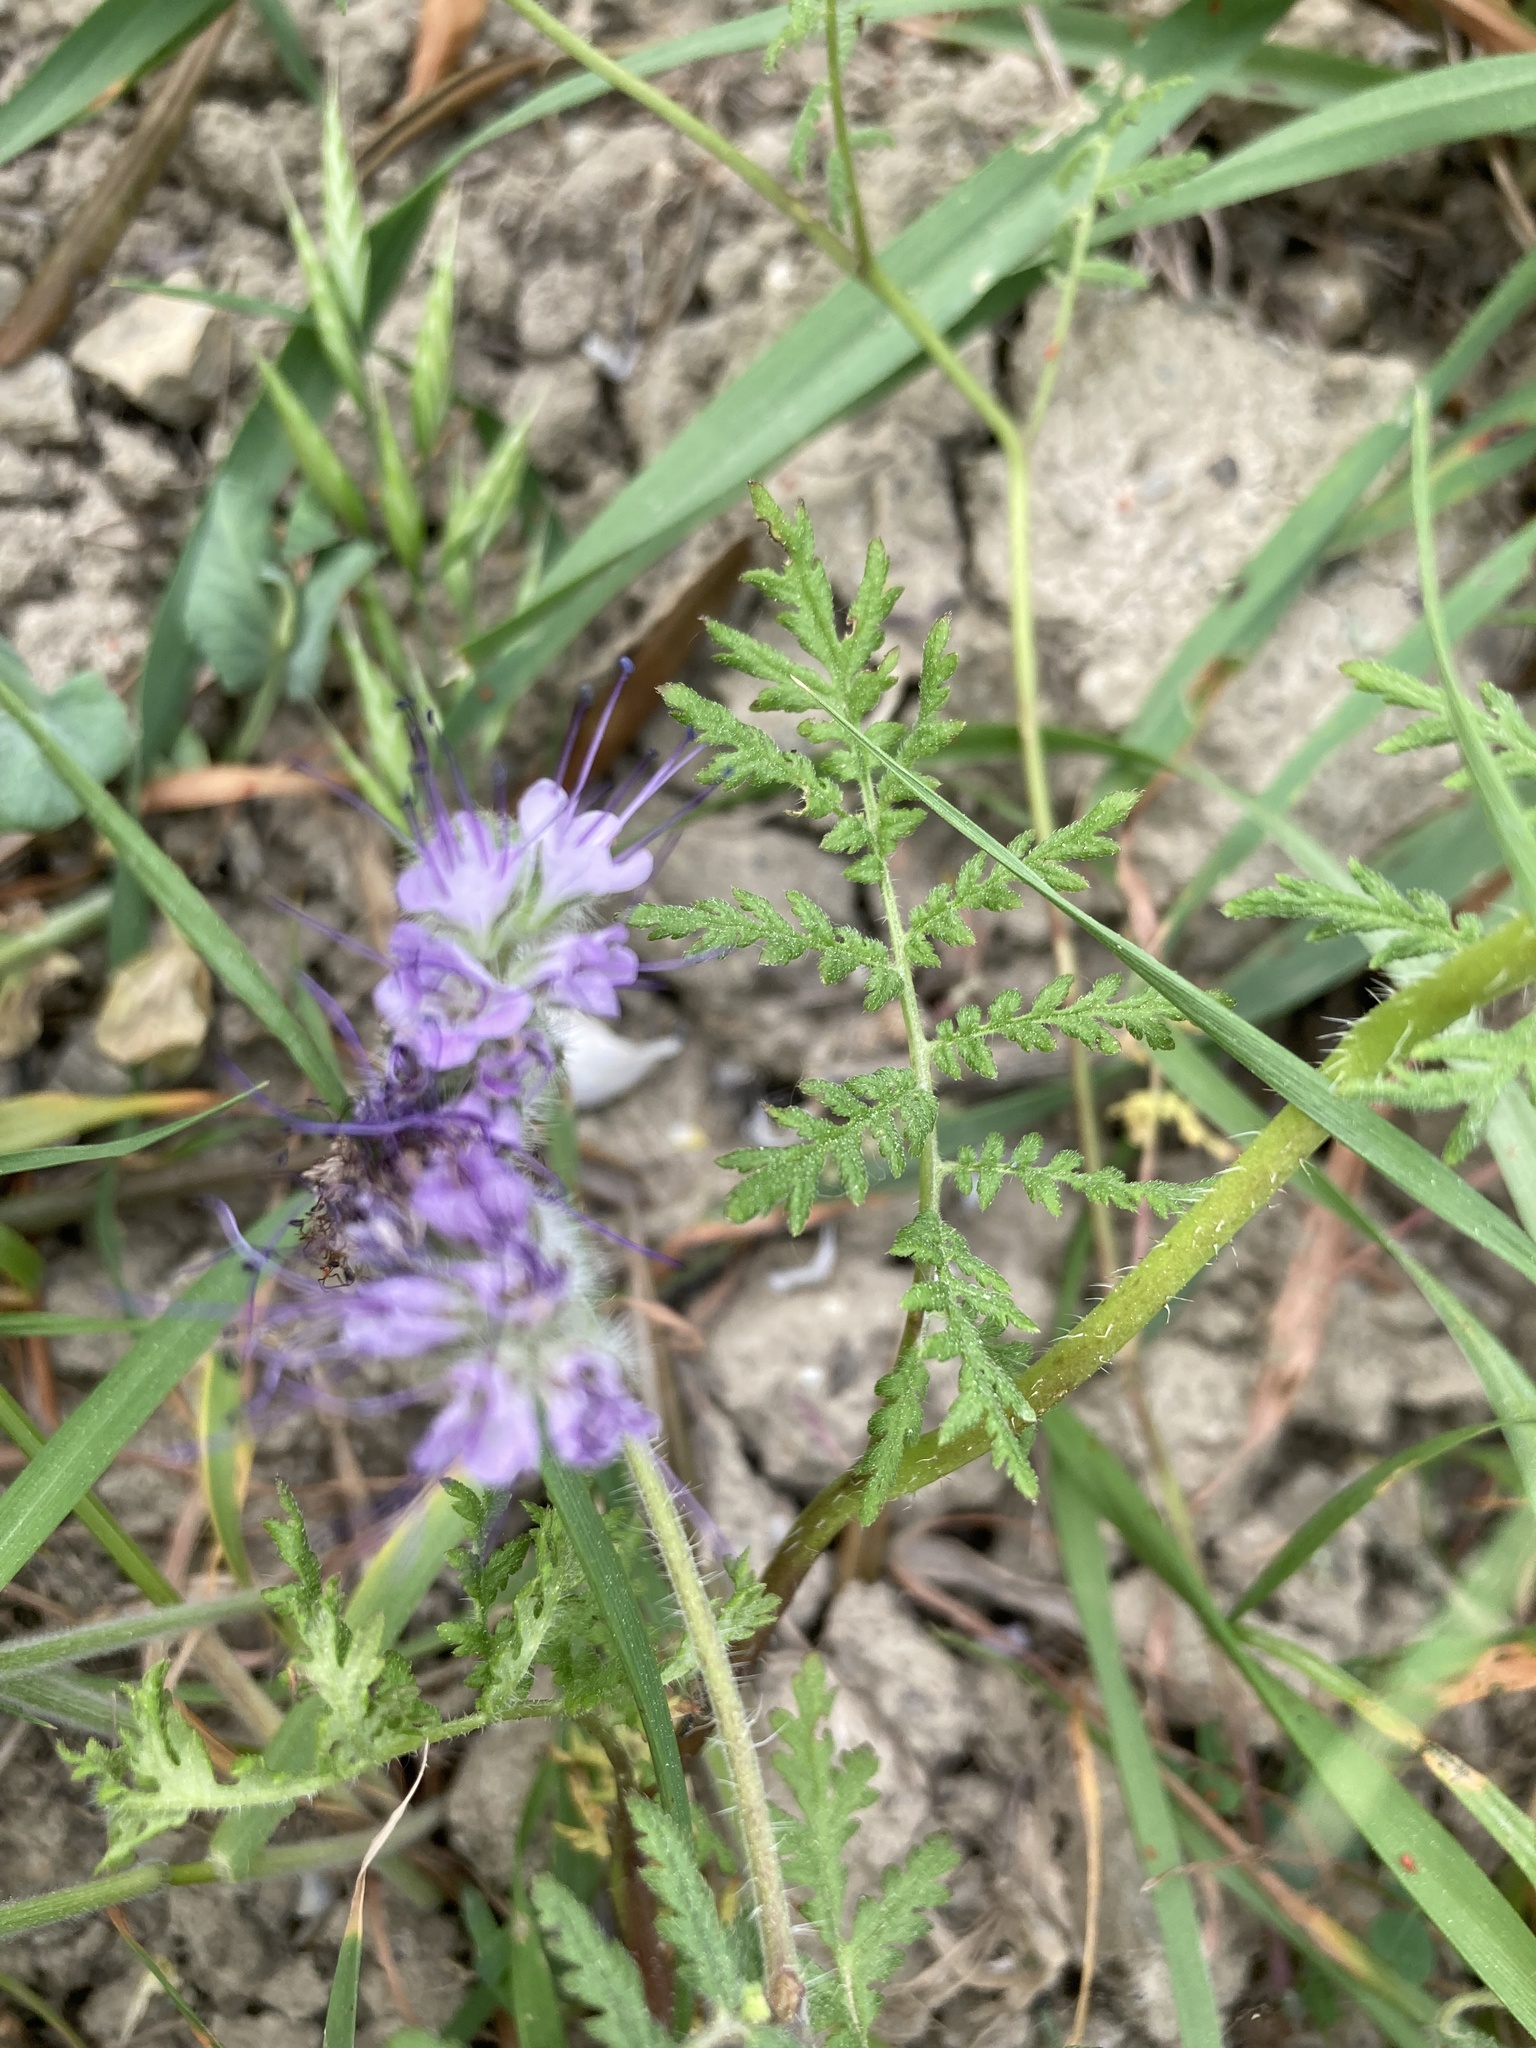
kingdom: Plantae
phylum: Tracheophyta
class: Magnoliopsida
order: Boraginales
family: Hydrophyllaceae
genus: Phacelia
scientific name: Phacelia tanacetifolia
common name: Phacelia
